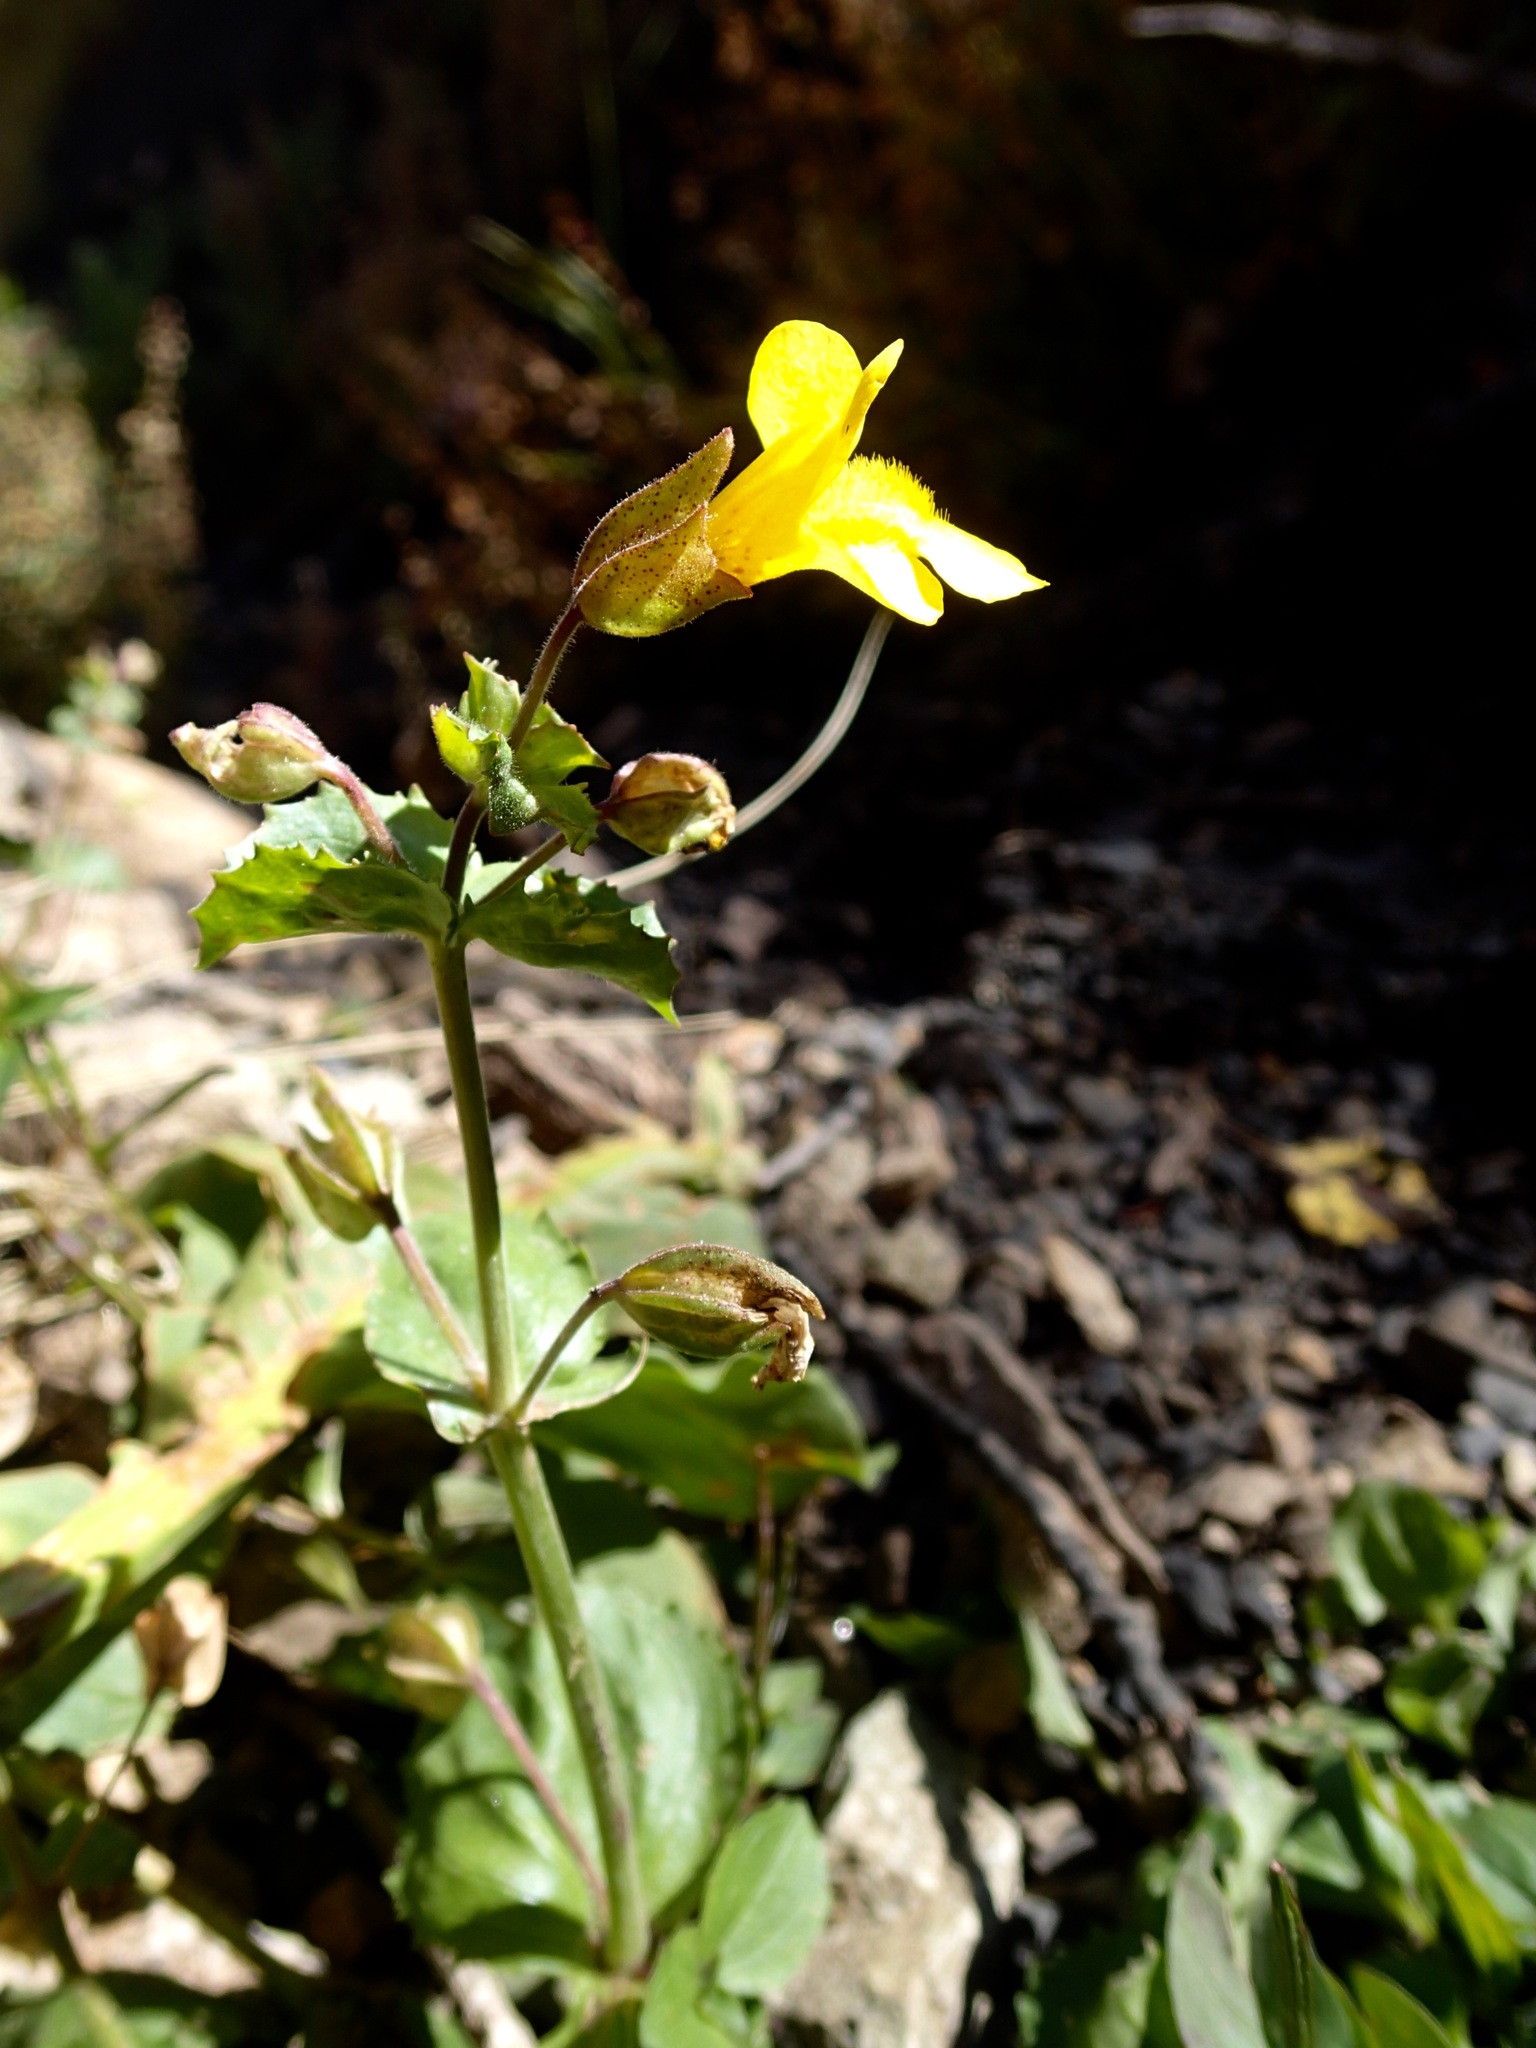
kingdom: Plantae
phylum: Tracheophyta
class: Magnoliopsida
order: Lamiales
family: Phrymaceae
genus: Erythranthe
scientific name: Erythranthe guttata
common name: Monkeyflower
